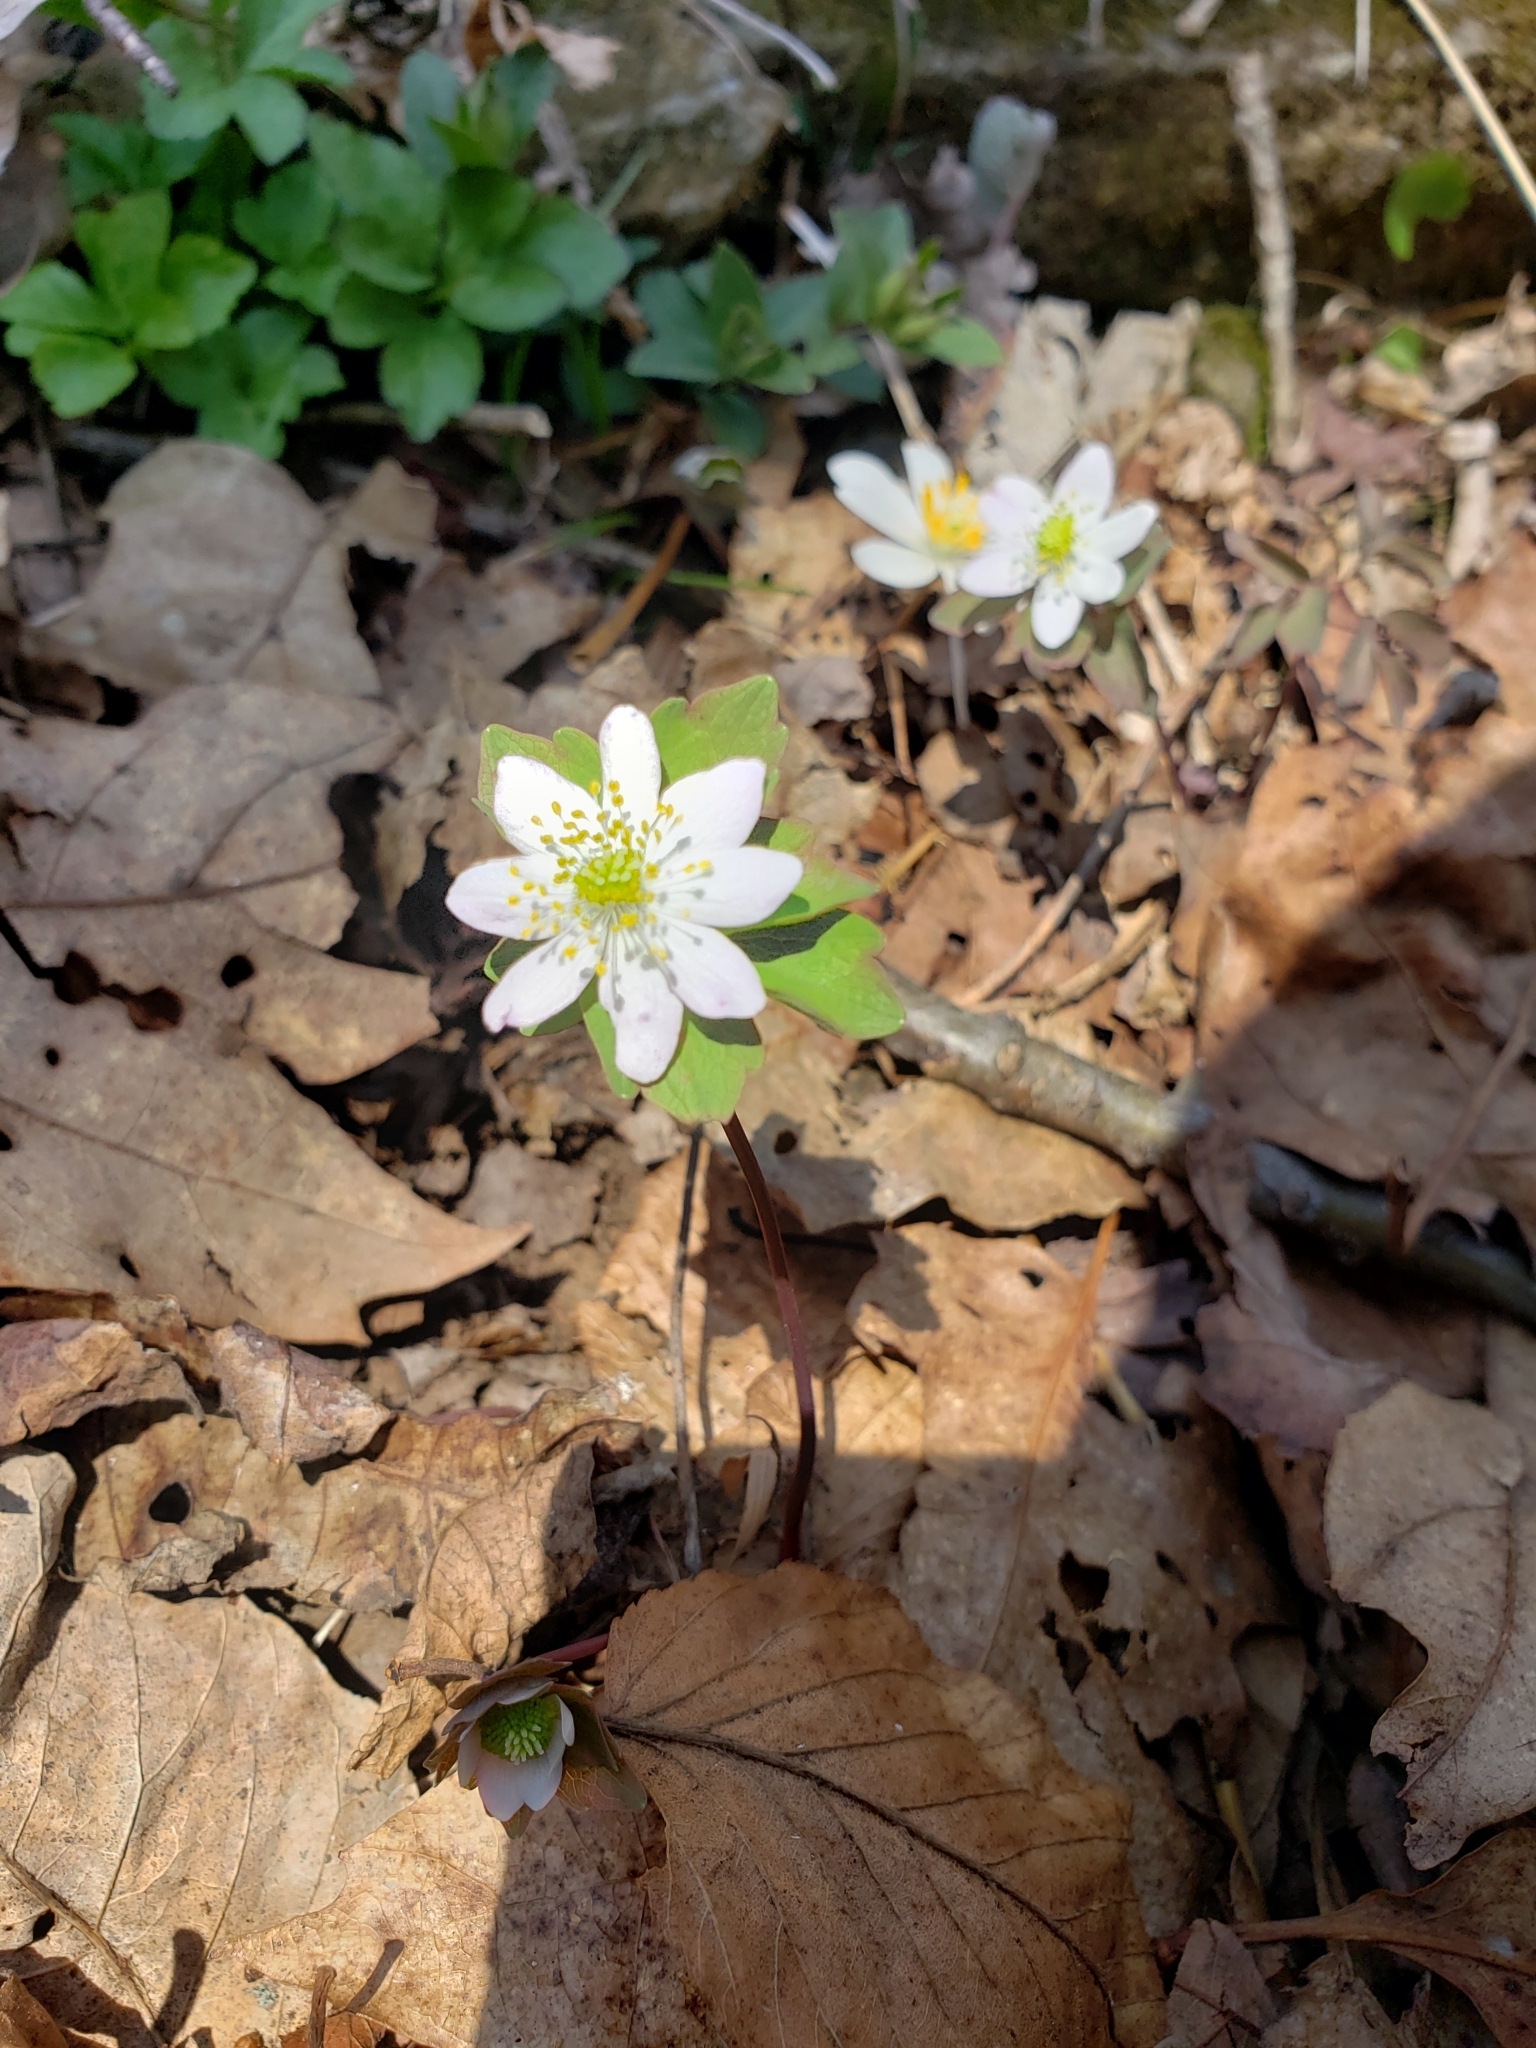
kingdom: Plantae
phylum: Tracheophyta
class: Magnoliopsida
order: Ranunculales
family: Ranunculaceae
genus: Thalictrum
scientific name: Thalictrum thalictroides
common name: Rue-anemone
